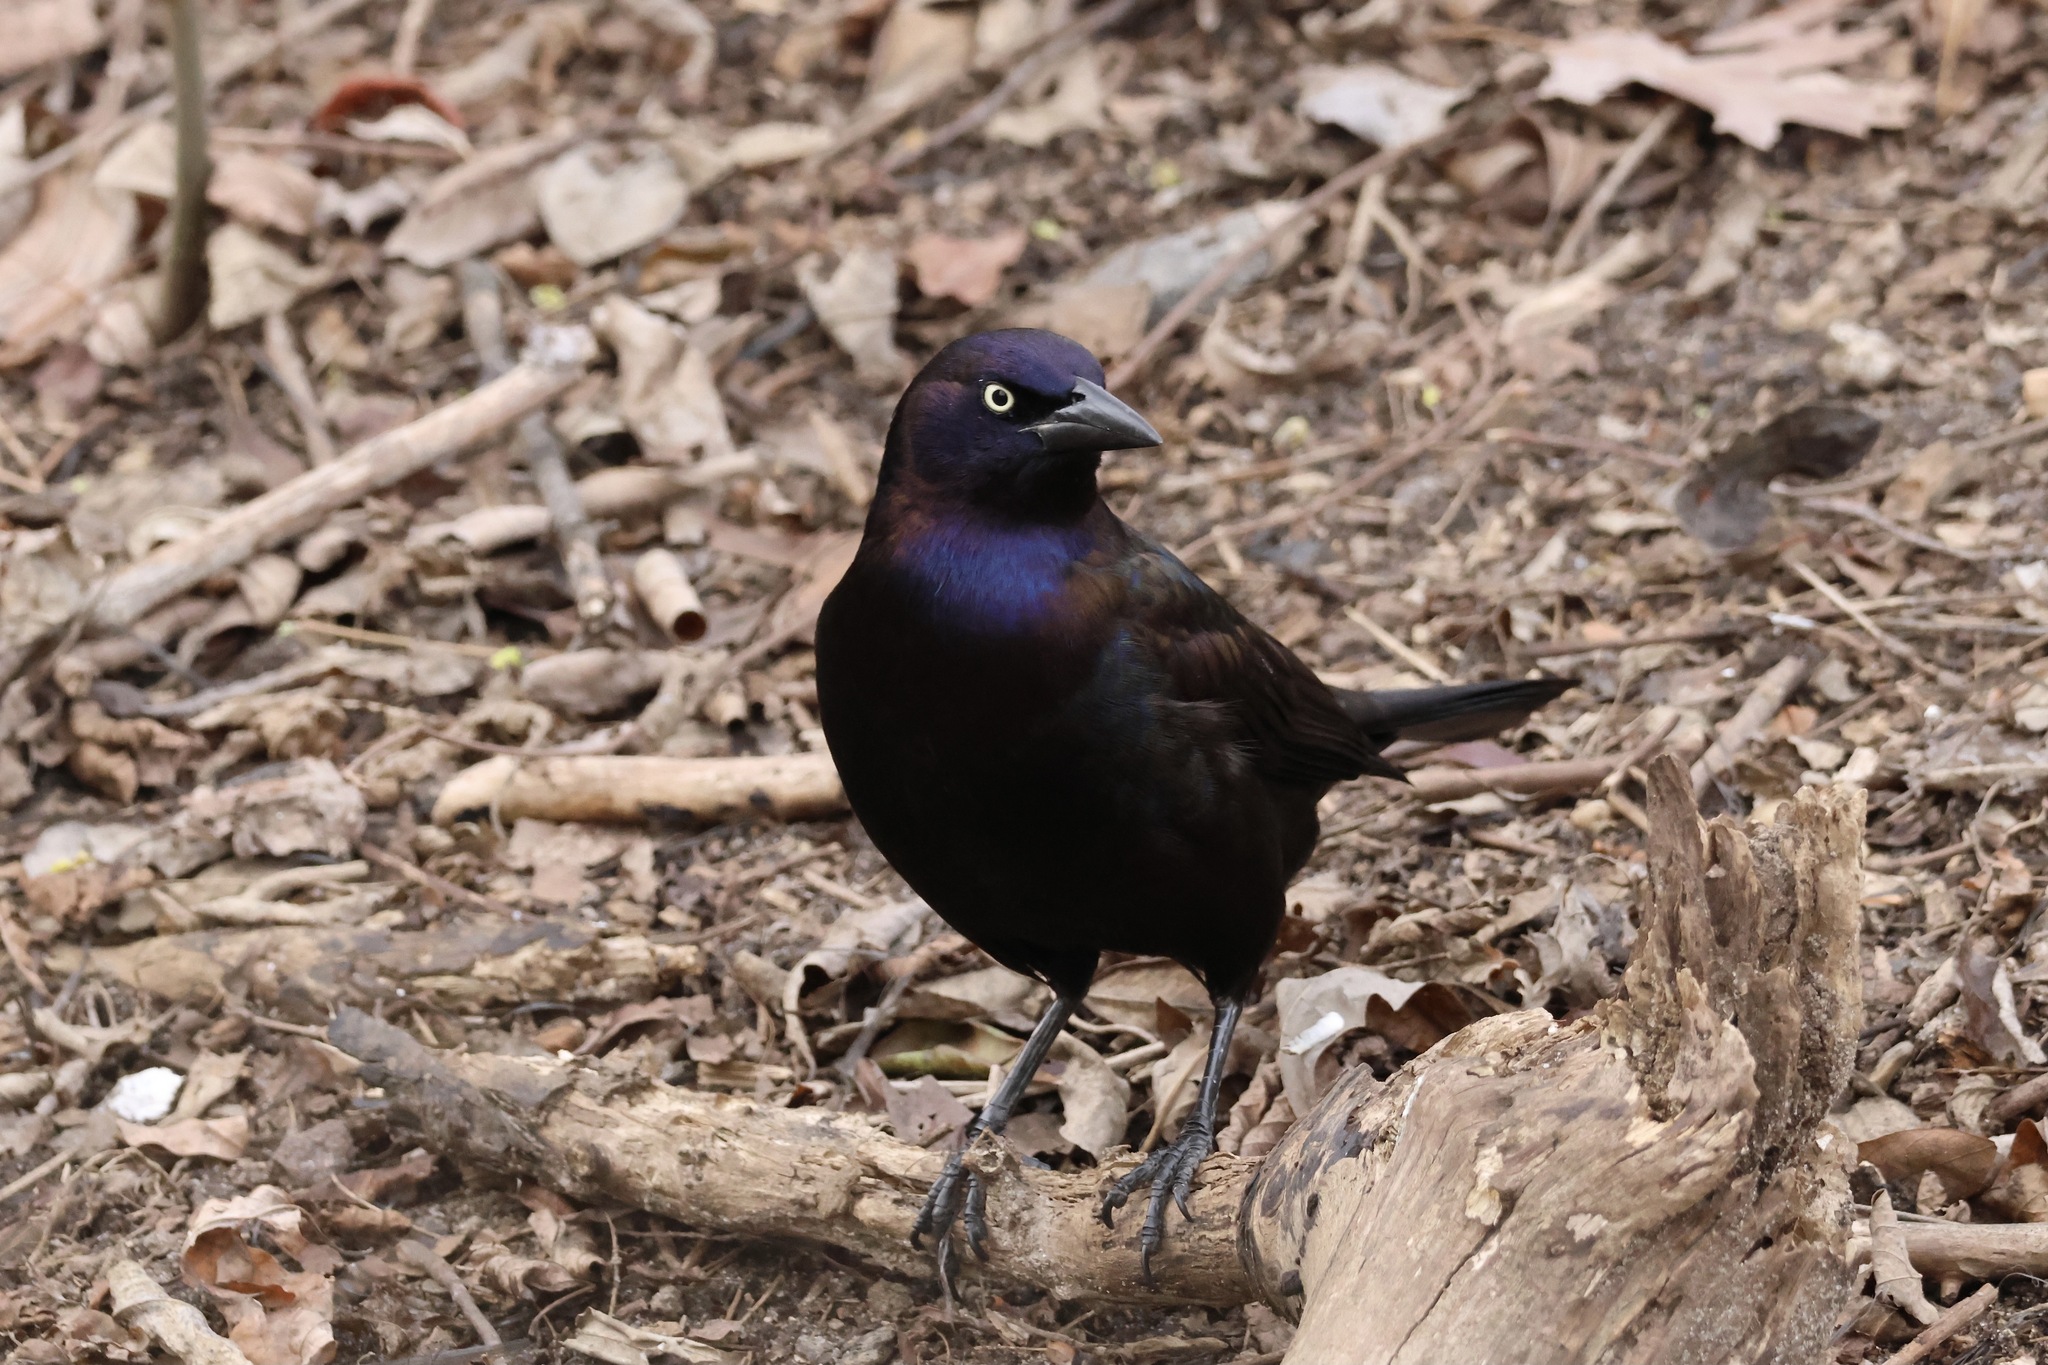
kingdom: Animalia
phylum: Chordata
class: Aves
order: Passeriformes
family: Icteridae
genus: Quiscalus
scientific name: Quiscalus quiscula
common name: Common grackle
